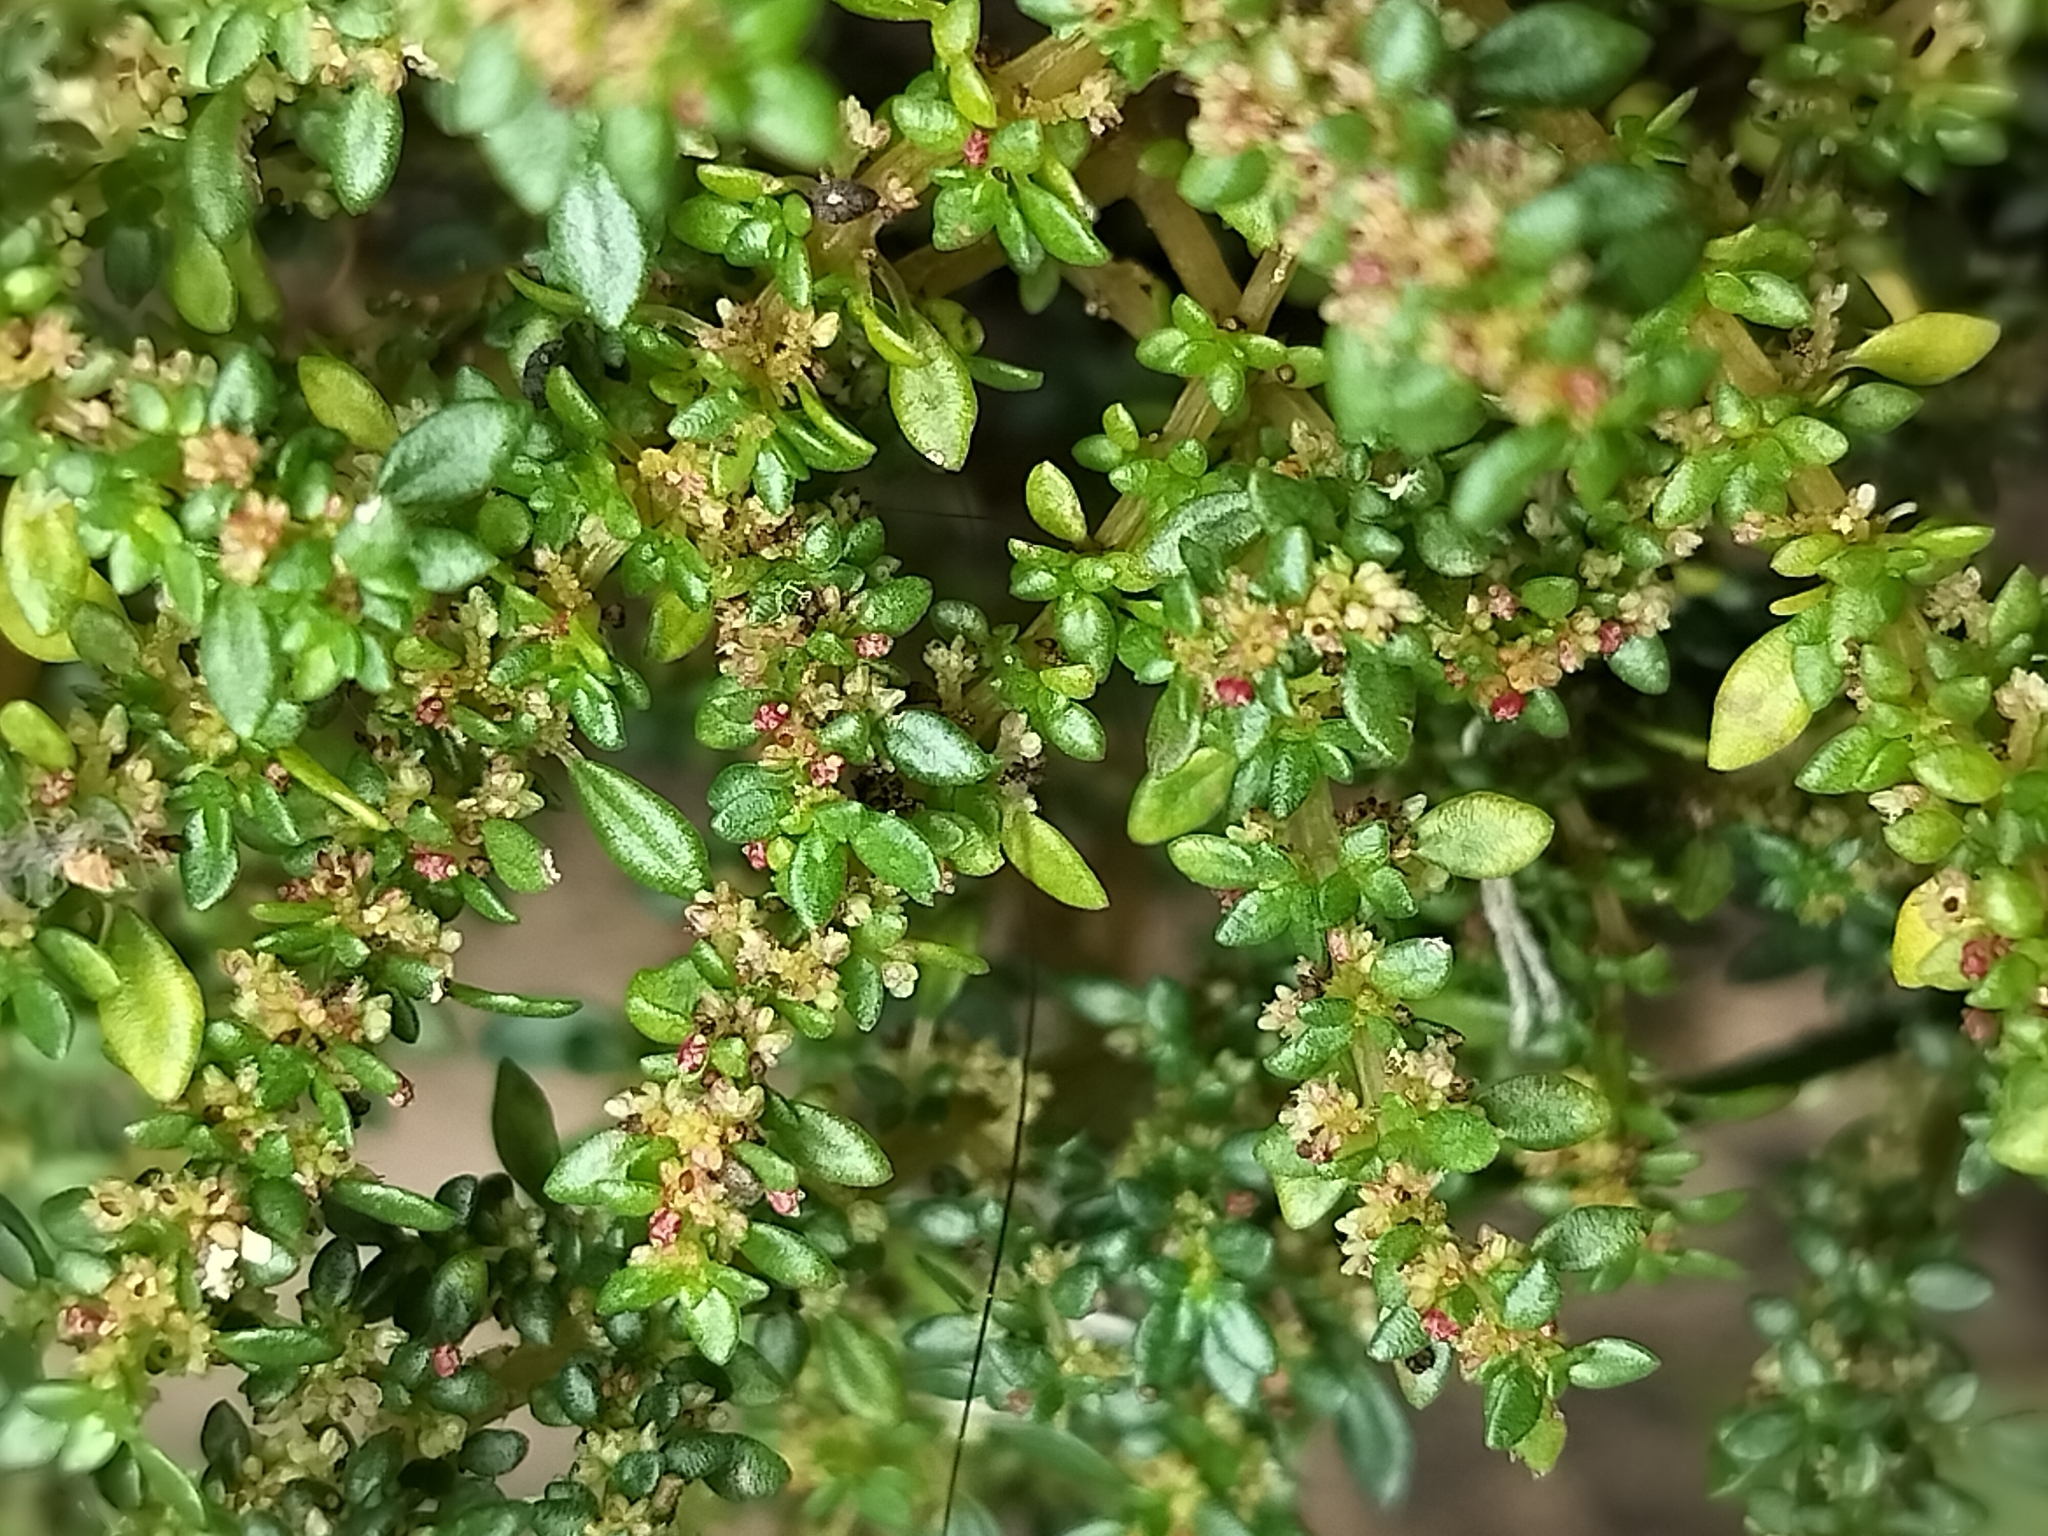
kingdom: Plantae
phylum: Tracheophyta
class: Magnoliopsida
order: Rosales
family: Urticaceae
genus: Pilea
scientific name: Pilea microphylla
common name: Artillery-plant
